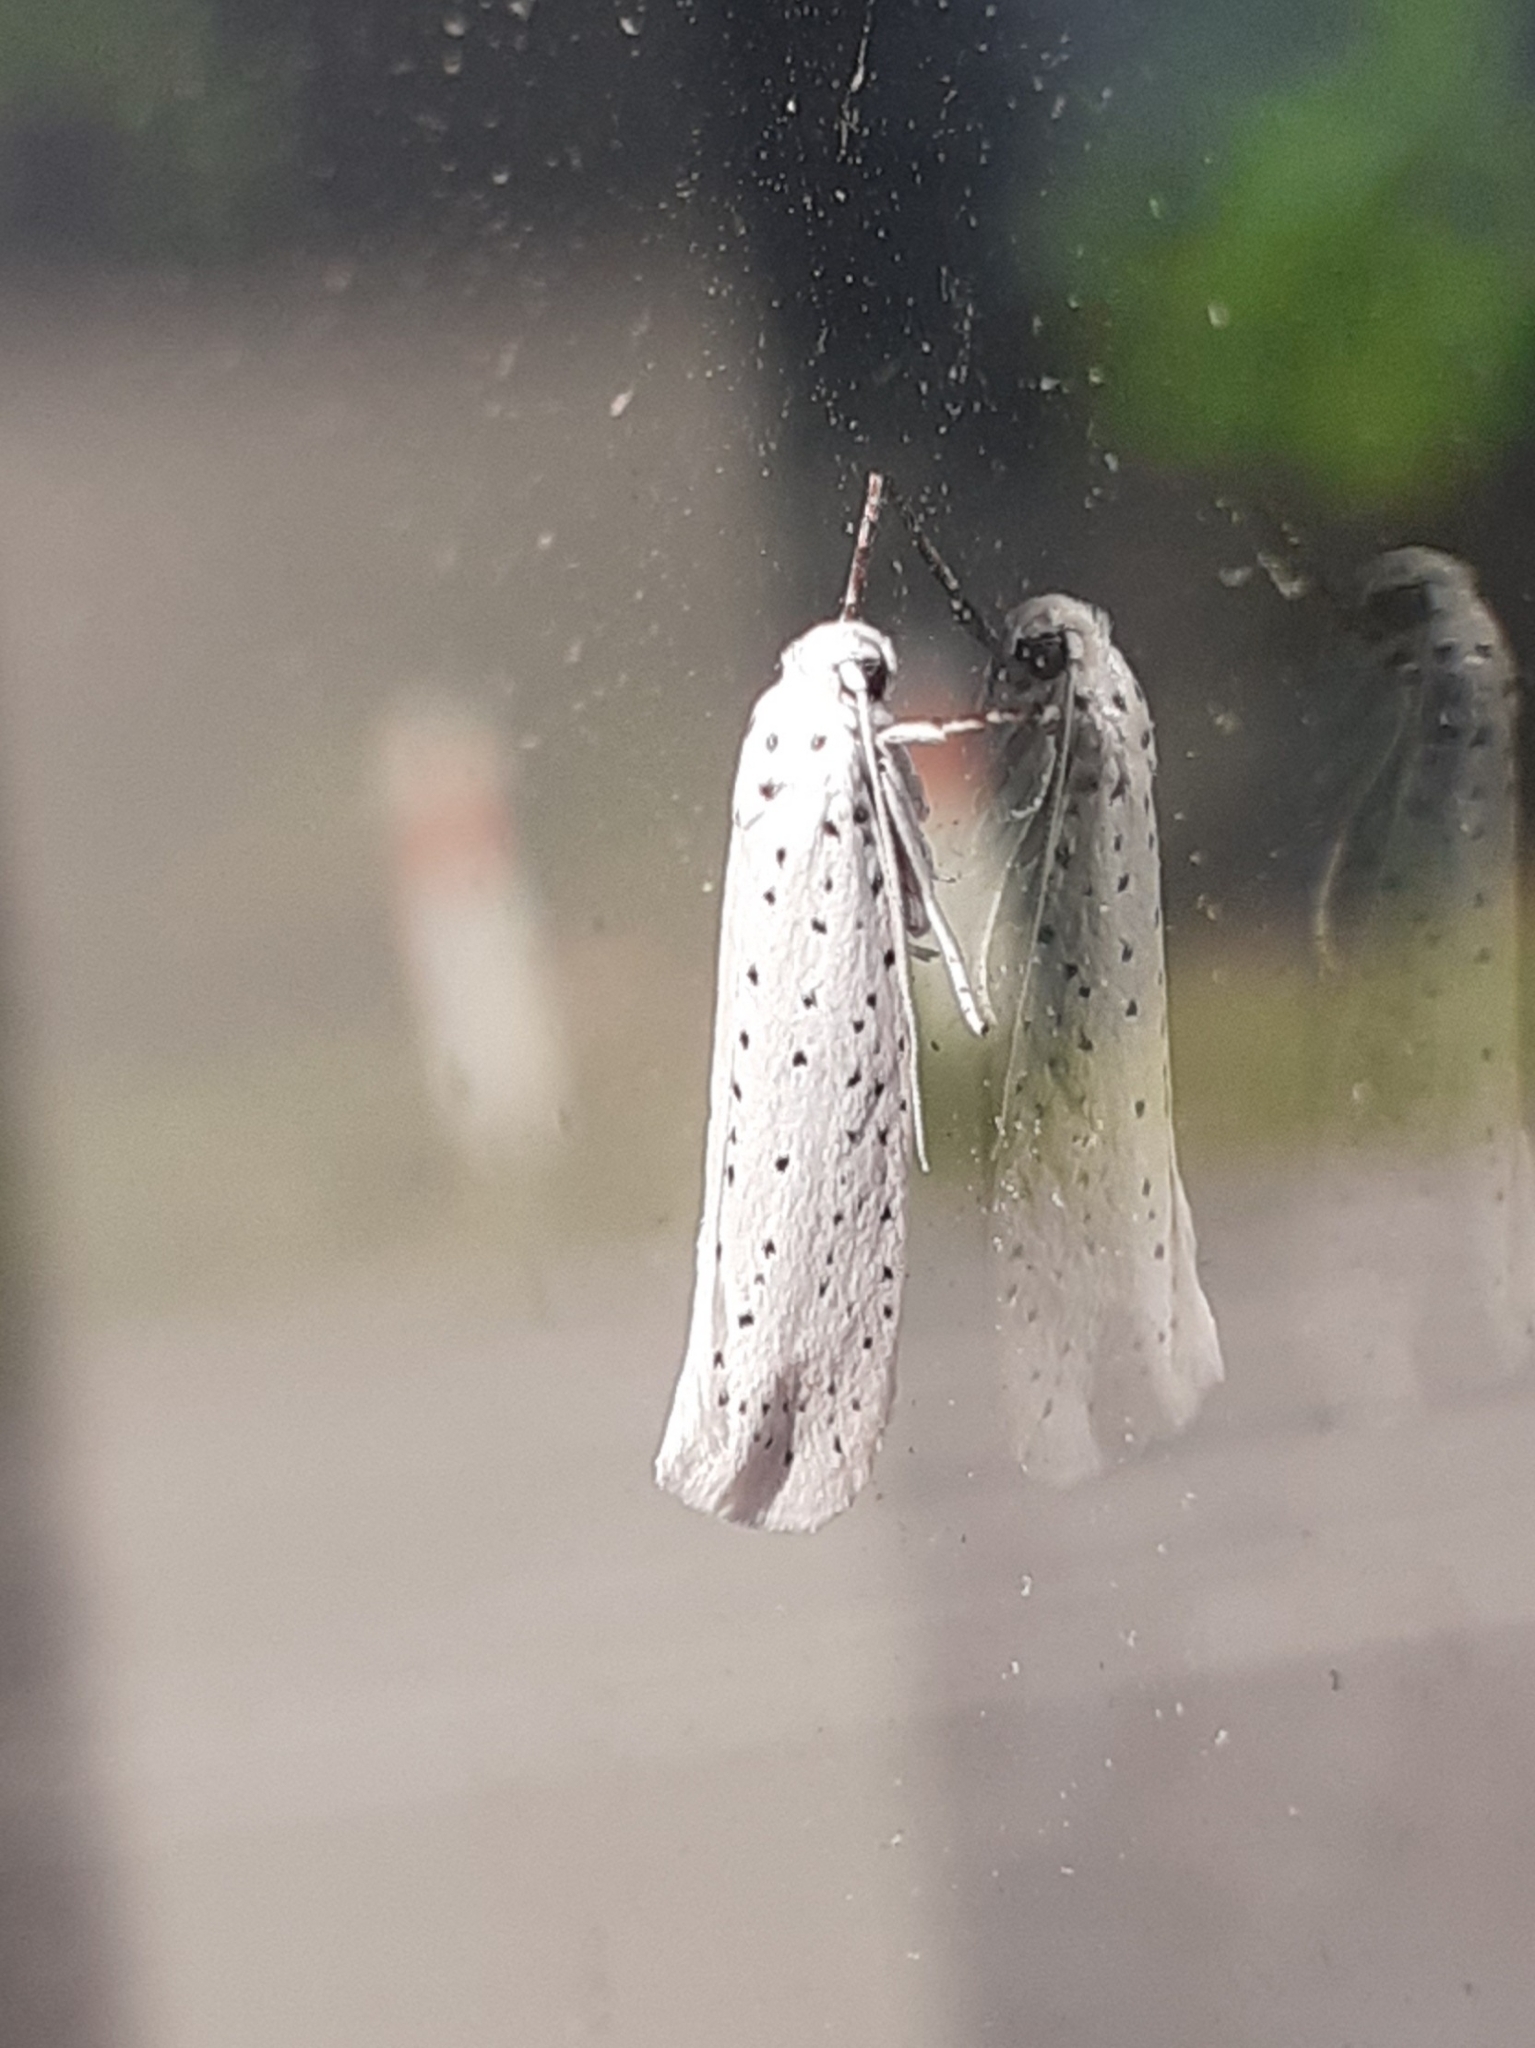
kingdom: Animalia
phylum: Arthropoda
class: Insecta
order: Lepidoptera
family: Yponomeutidae
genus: Yponomeuta
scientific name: Yponomeuta evonymella
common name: Bird-cherry ermine
